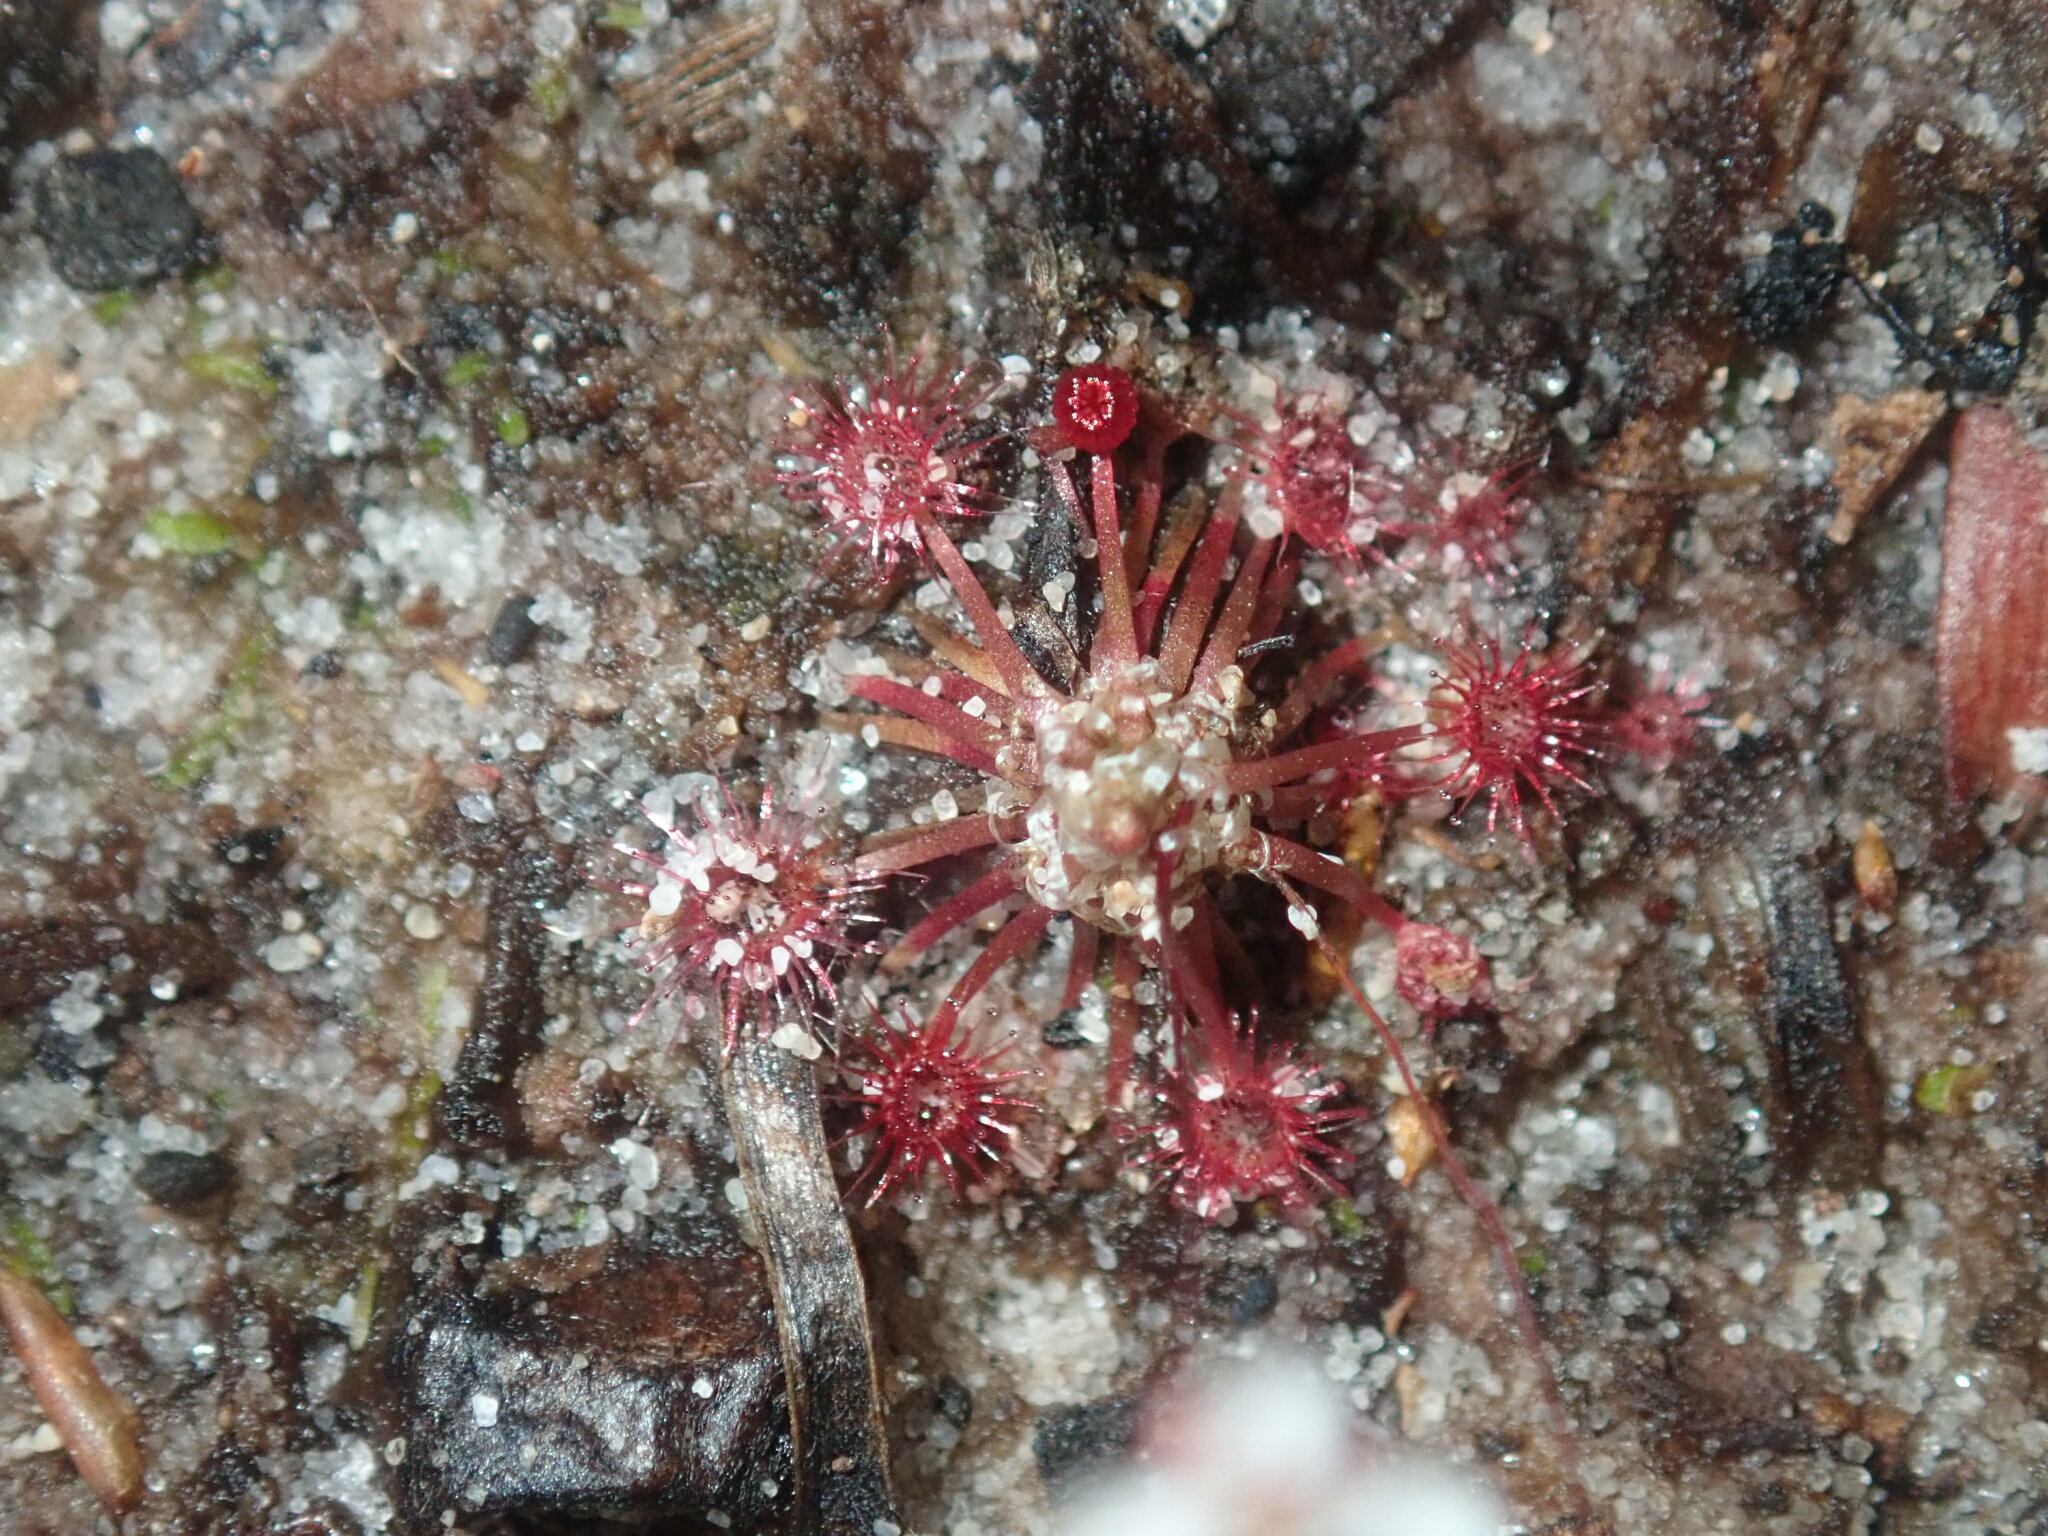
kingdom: Plantae
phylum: Tracheophyta
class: Magnoliopsida
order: Caryophyllales
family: Droseraceae
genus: Drosera
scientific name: Drosera pygmaea
